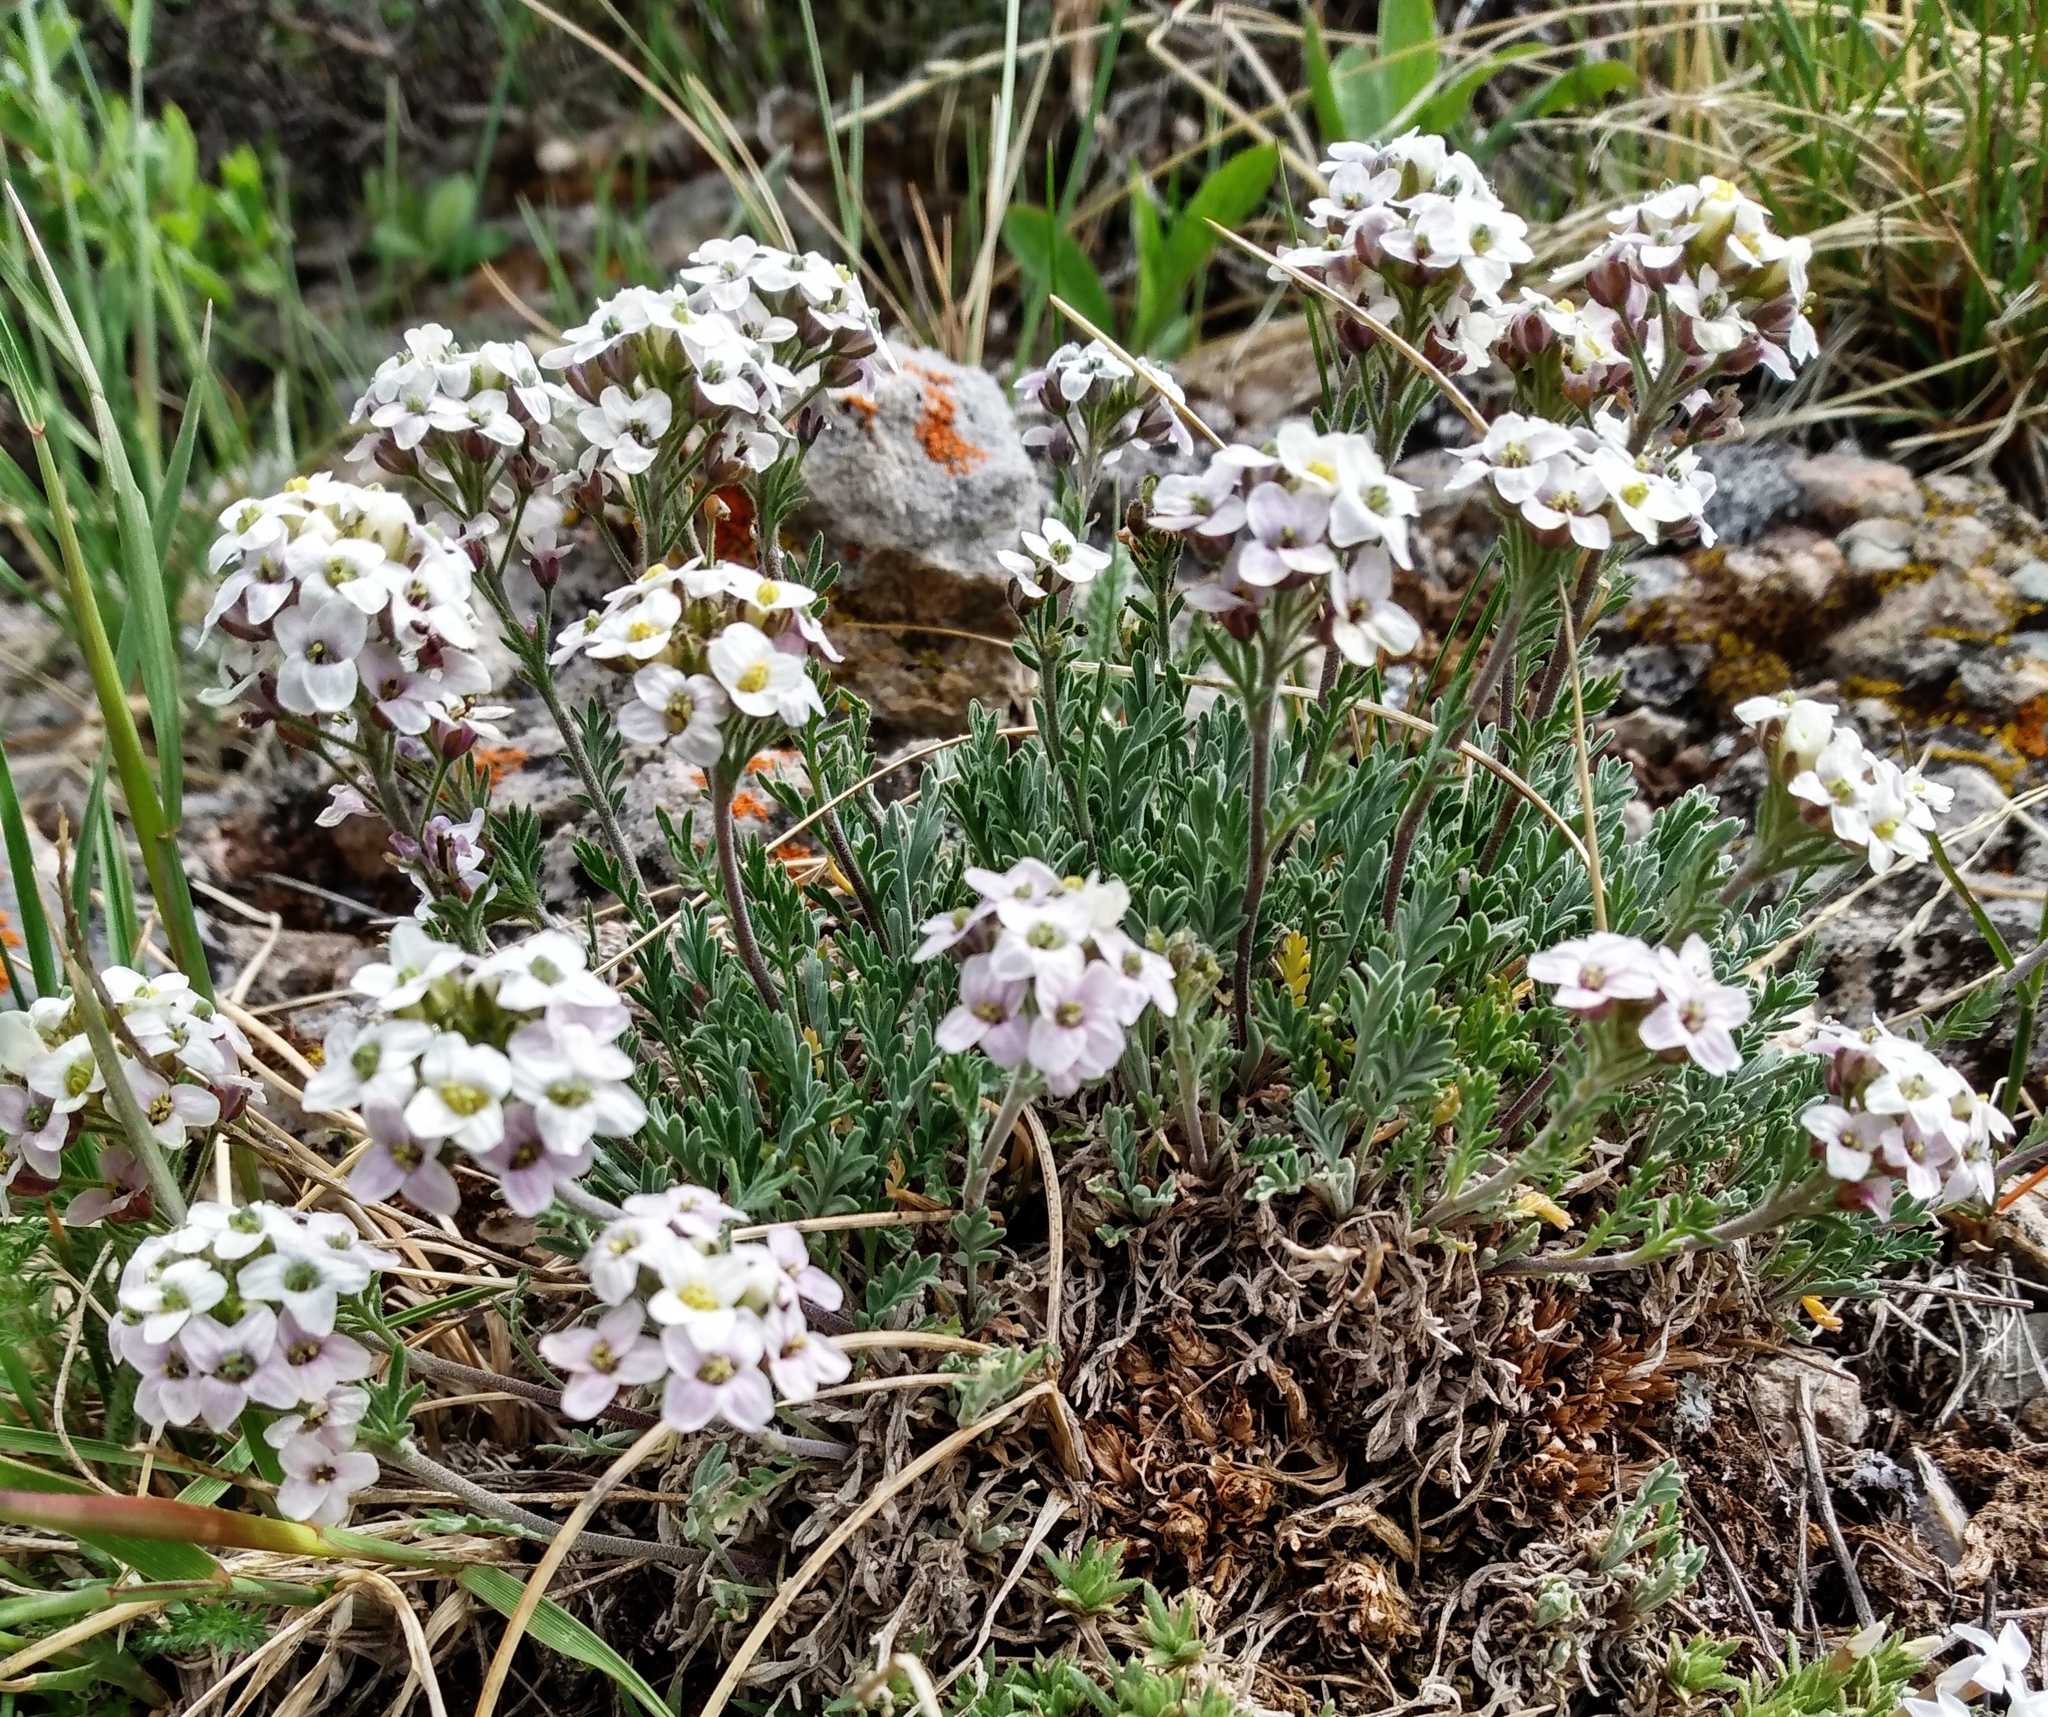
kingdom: Plantae
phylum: Tracheophyta
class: Magnoliopsida
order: Brassicales
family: Brassicaceae
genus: Smelowskia
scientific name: Smelowskia americana
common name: American false candytuft
